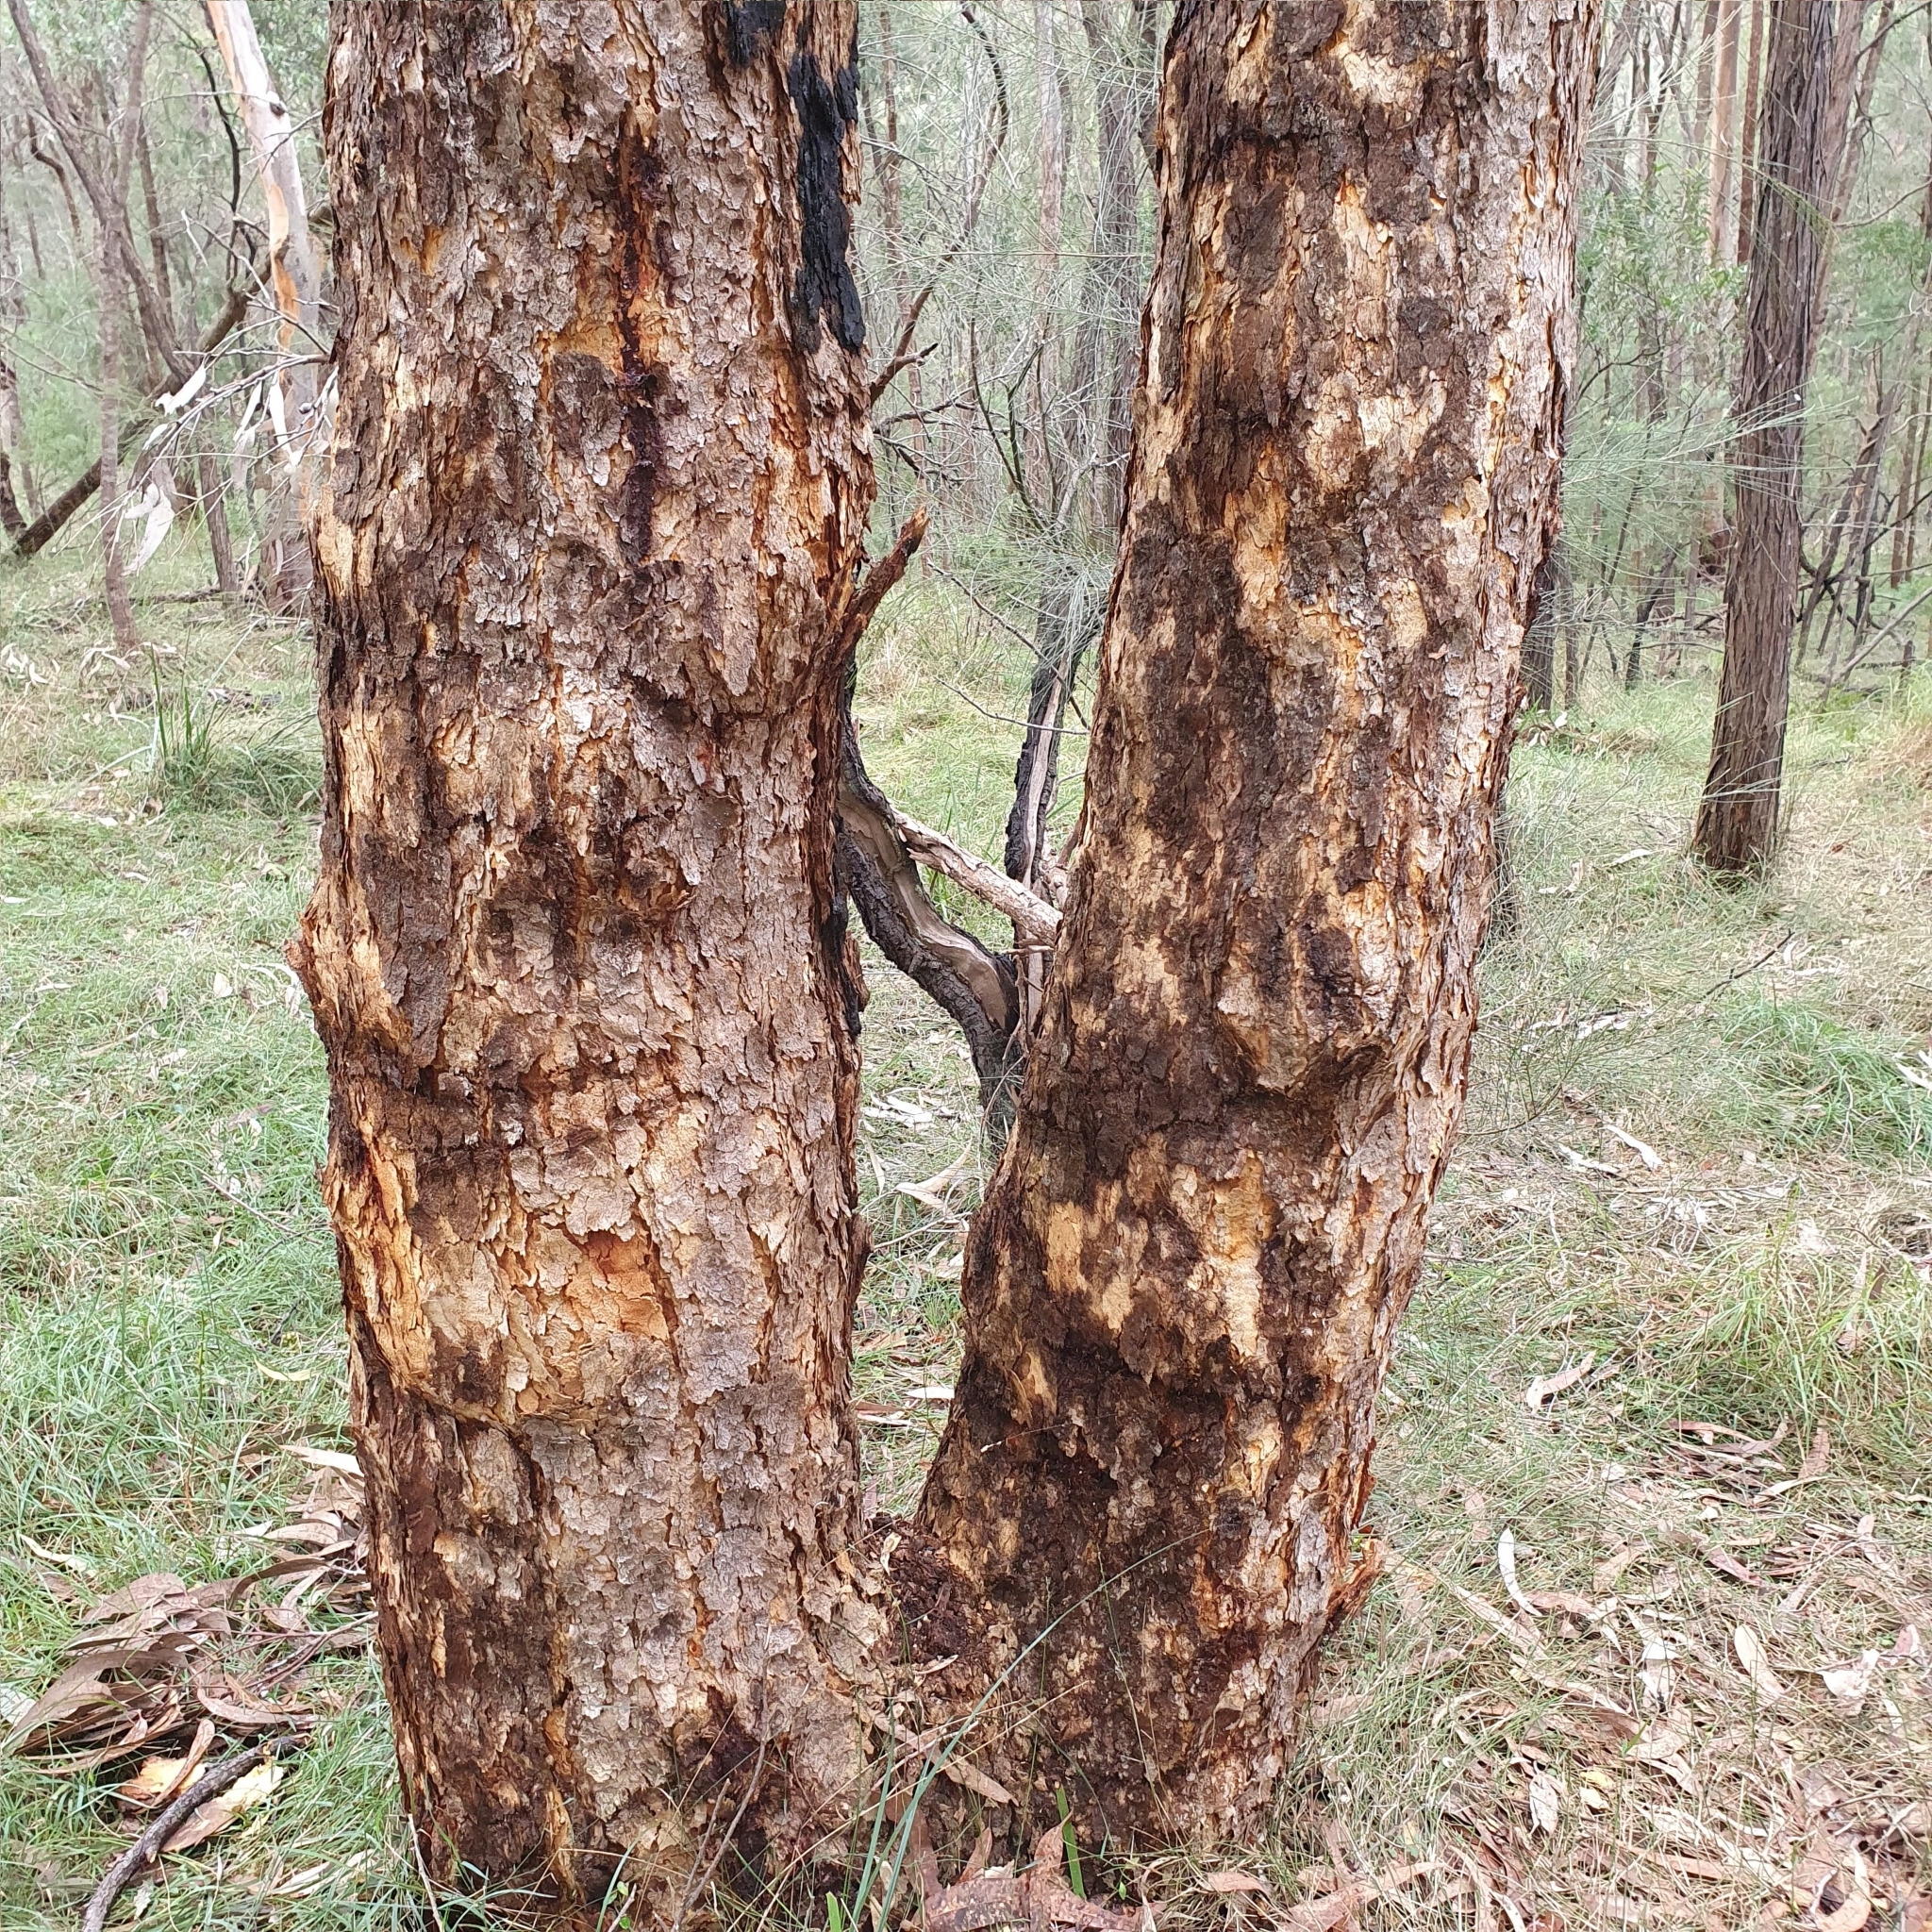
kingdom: Plantae
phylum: Tracheophyta
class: Magnoliopsida
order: Myrtales
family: Myrtaceae
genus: Corymbia
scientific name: Corymbia eximia
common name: Yellow bloodwood
